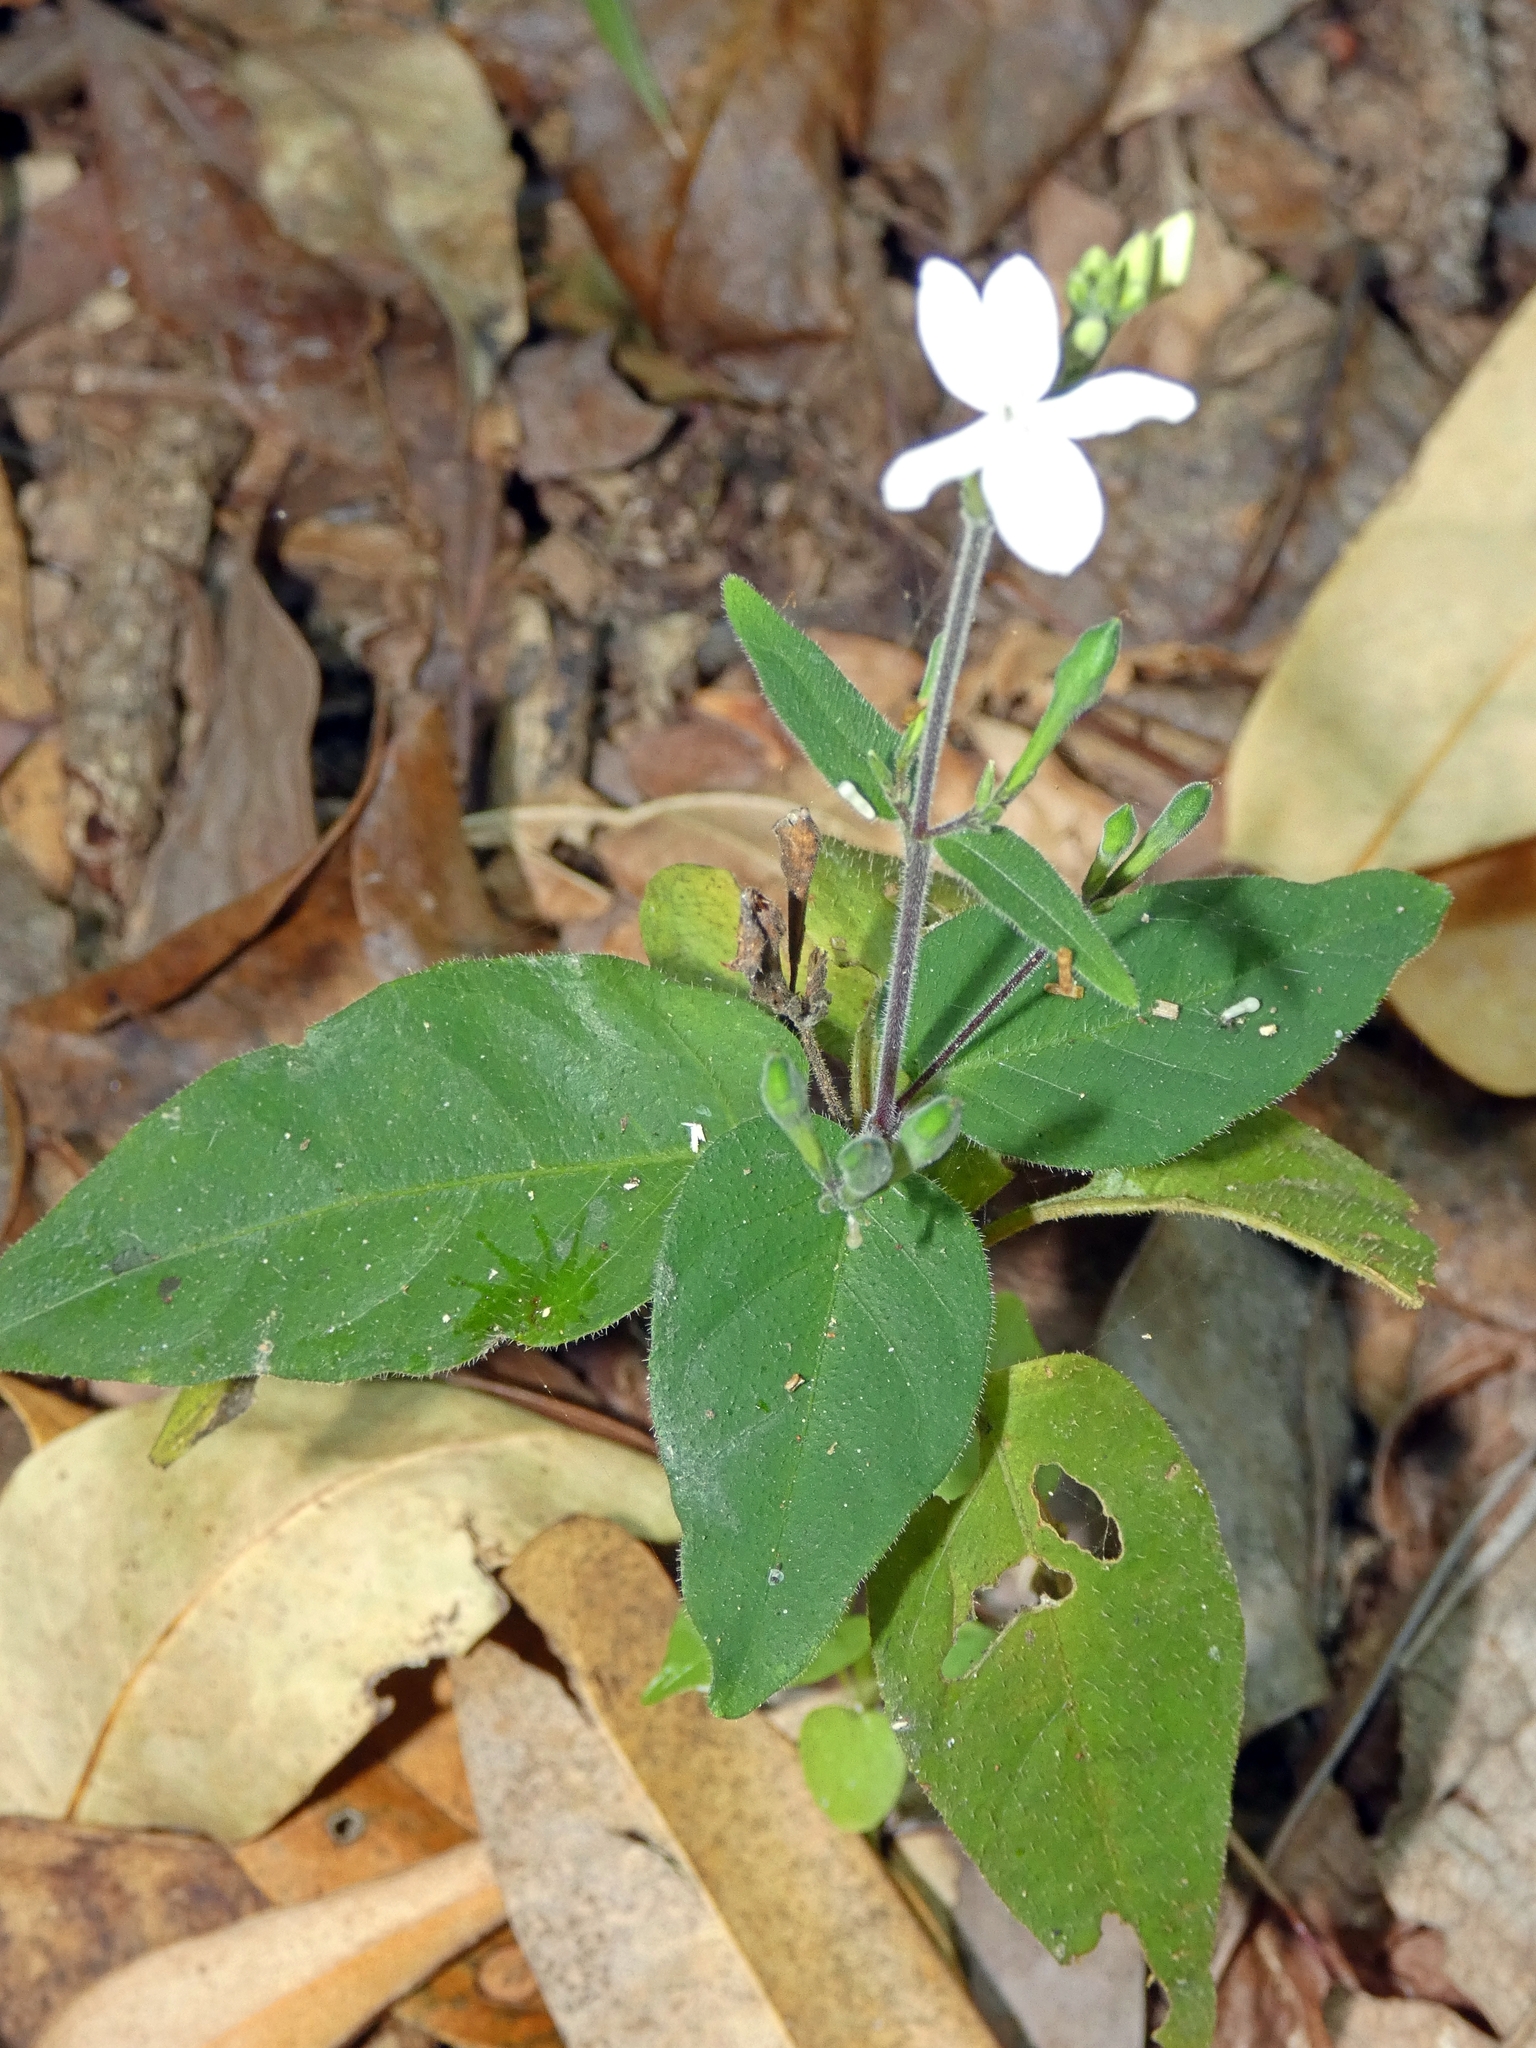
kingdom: Plantae
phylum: Tracheophyta
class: Magnoliopsida
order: Lamiales
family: Acanthaceae
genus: Pseuderanthemum
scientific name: Pseuderanthemum variabile
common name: Night and afternoon
